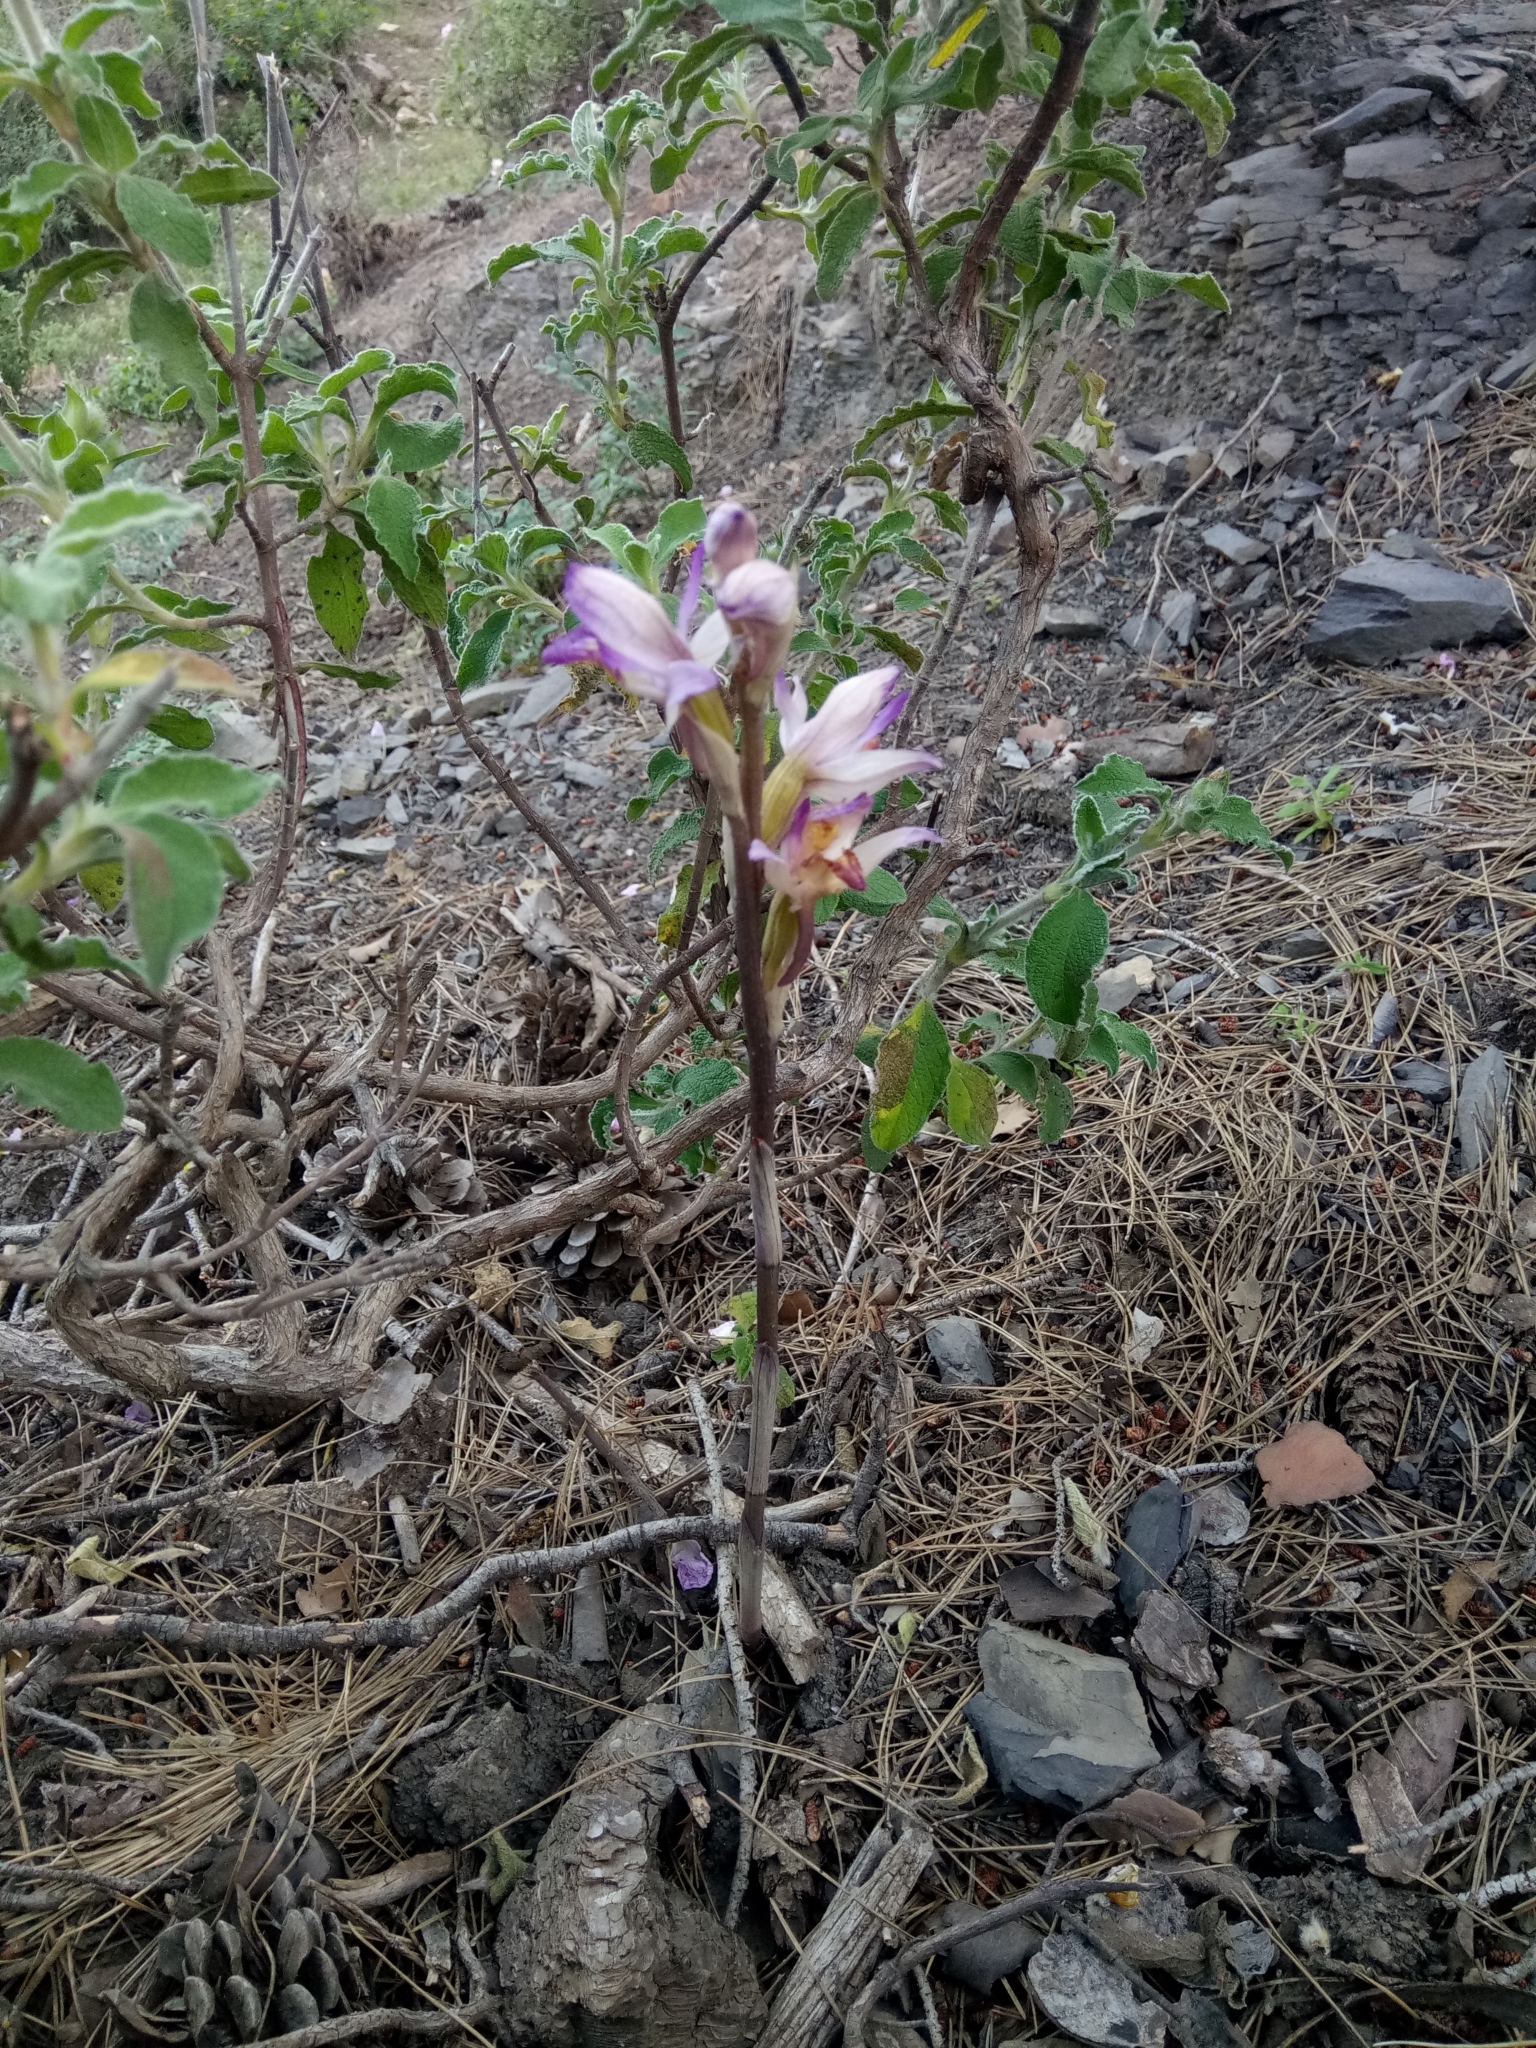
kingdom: Plantae
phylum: Tracheophyta
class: Liliopsida
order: Asparagales
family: Orchidaceae
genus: Limodorum
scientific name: Limodorum abortivum
